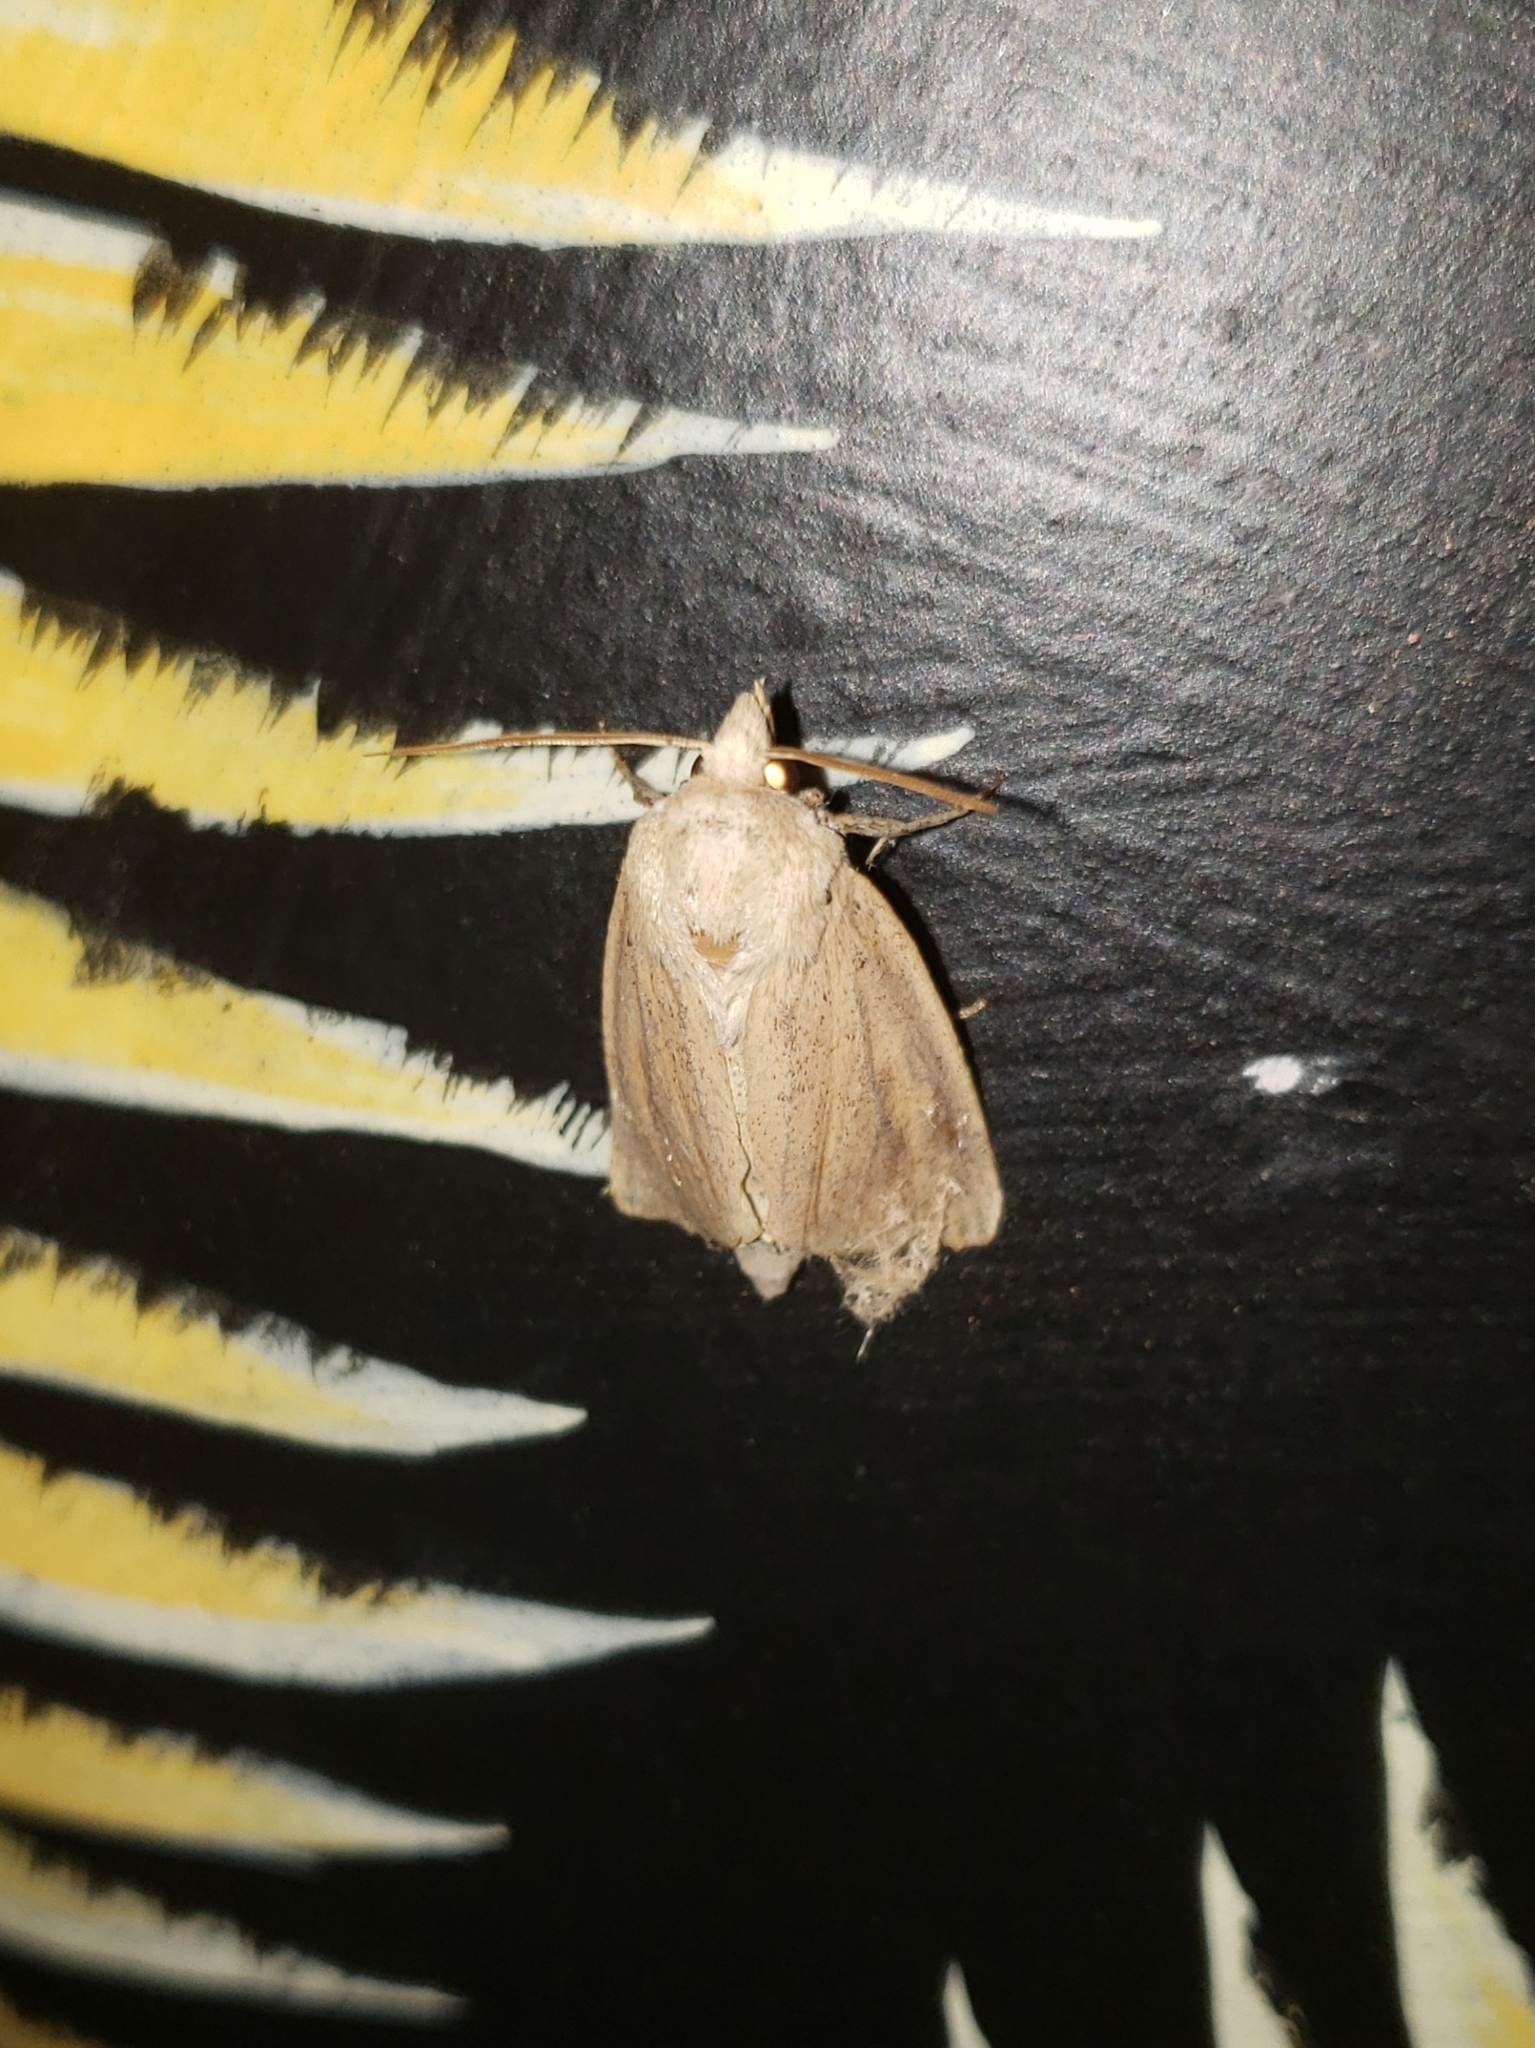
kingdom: Animalia
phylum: Arthropoda
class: Insecta
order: Lepidoptera
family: Noctuidae
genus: Globia
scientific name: Globia oblonga
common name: Oblong sedge borer moth
